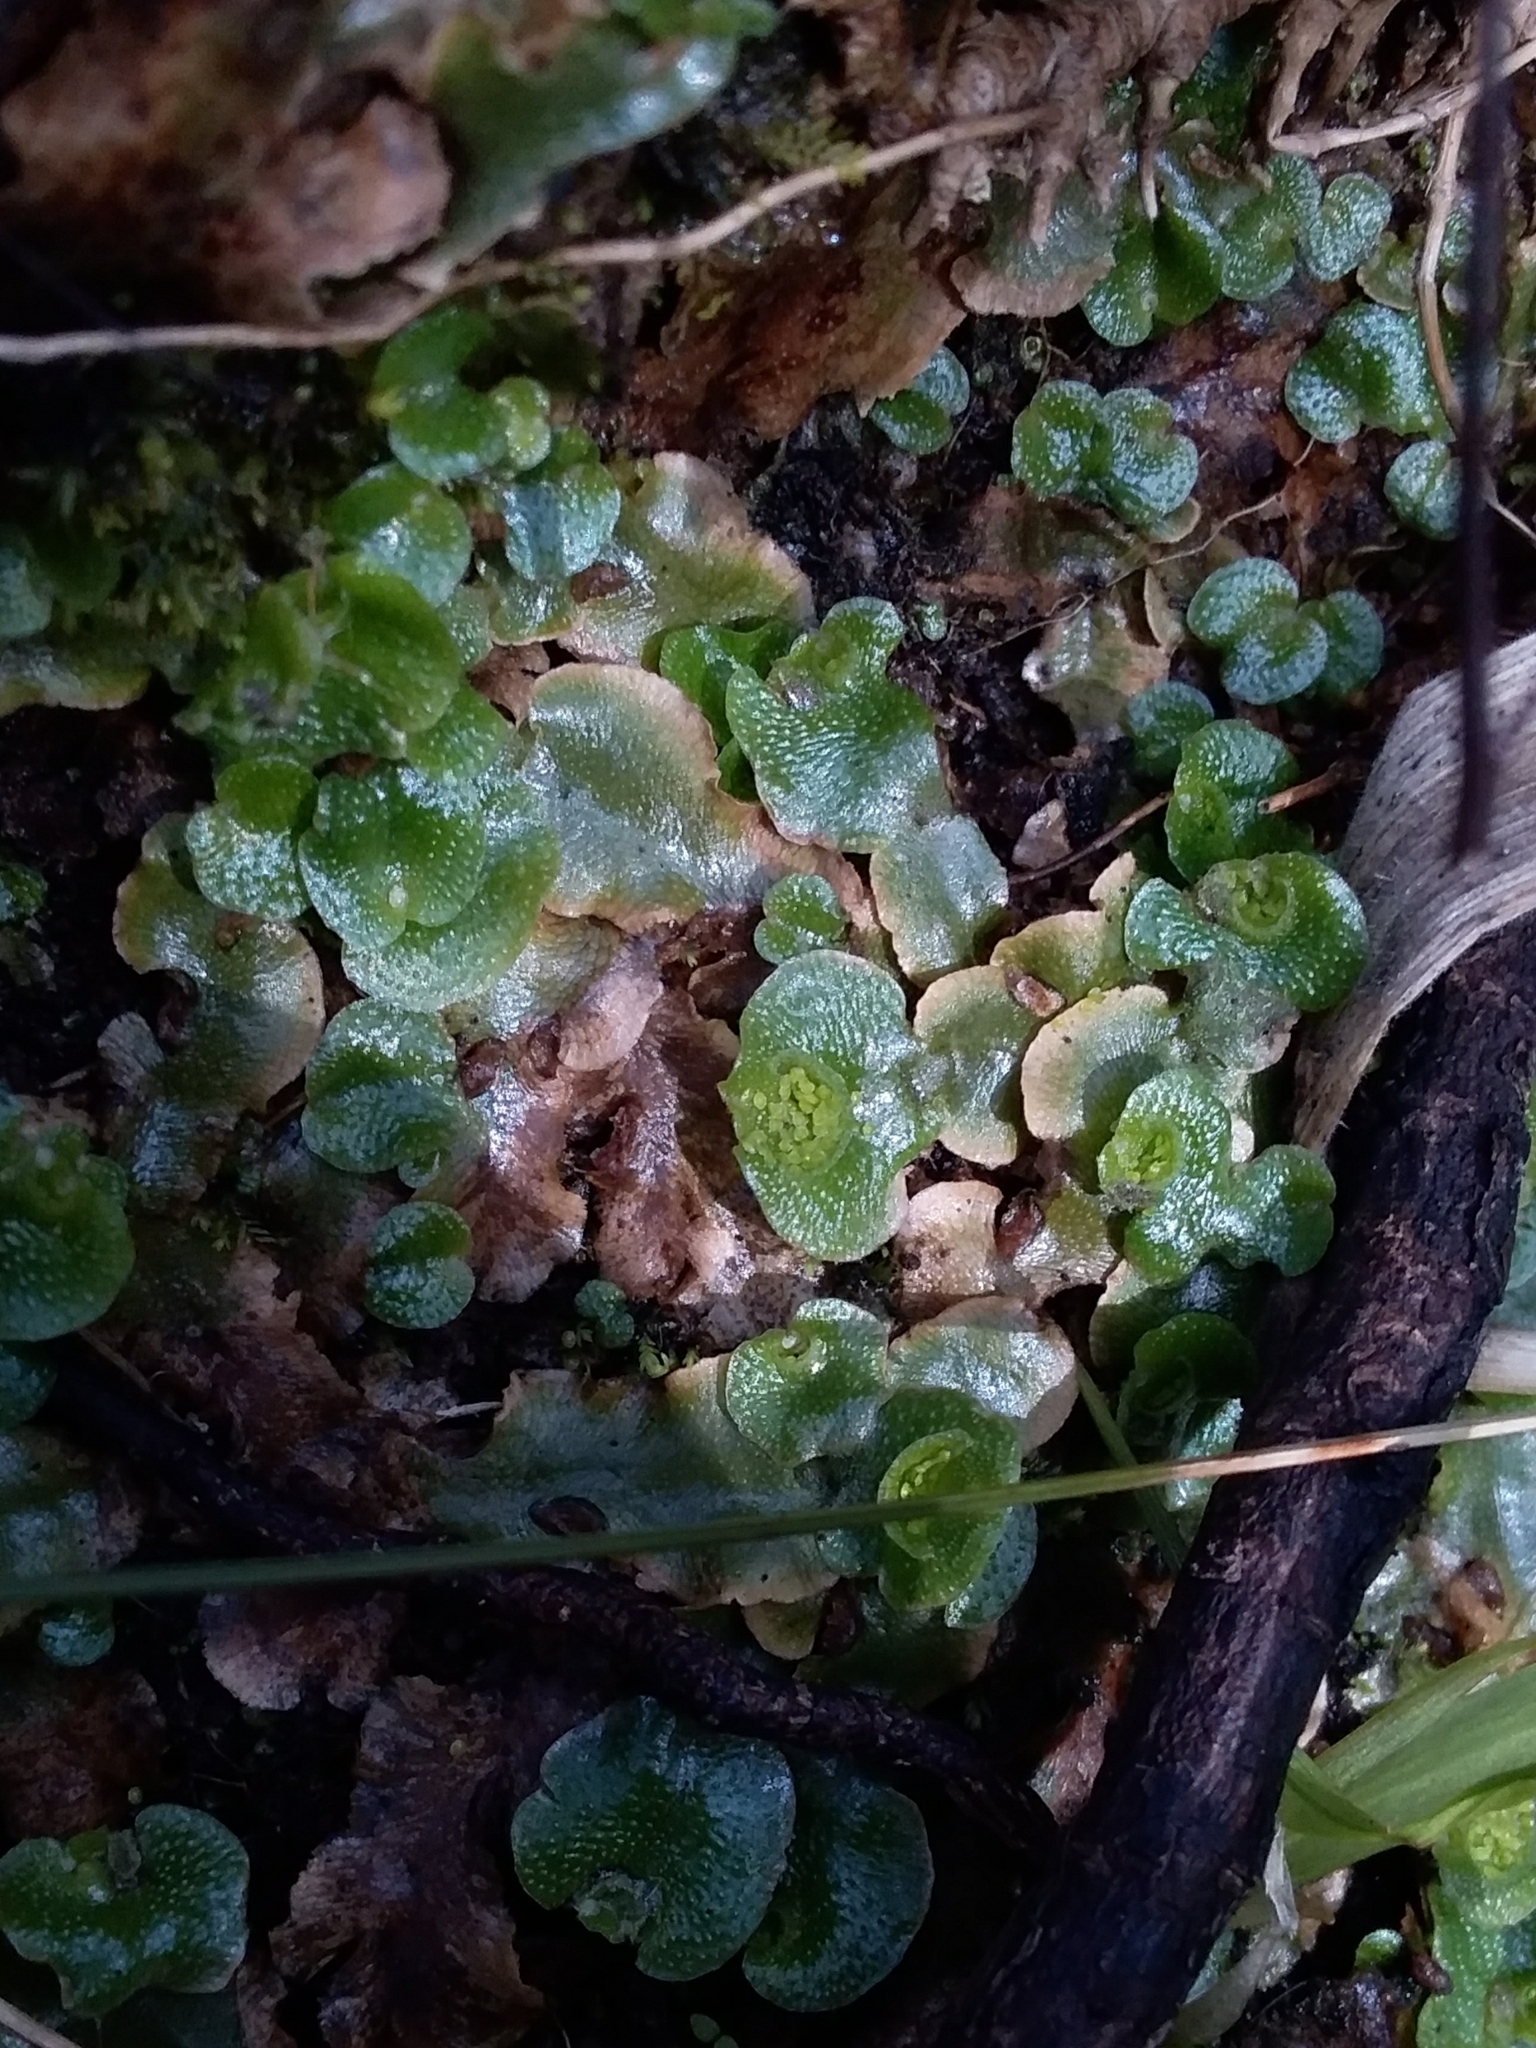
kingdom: Plantae
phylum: Marchantiophyta
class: Marchantiopsida
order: Lunulariales
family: Lunulariaceae
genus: Lunularia
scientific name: Lunularia cruciata
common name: Crescent-cup liverwort
